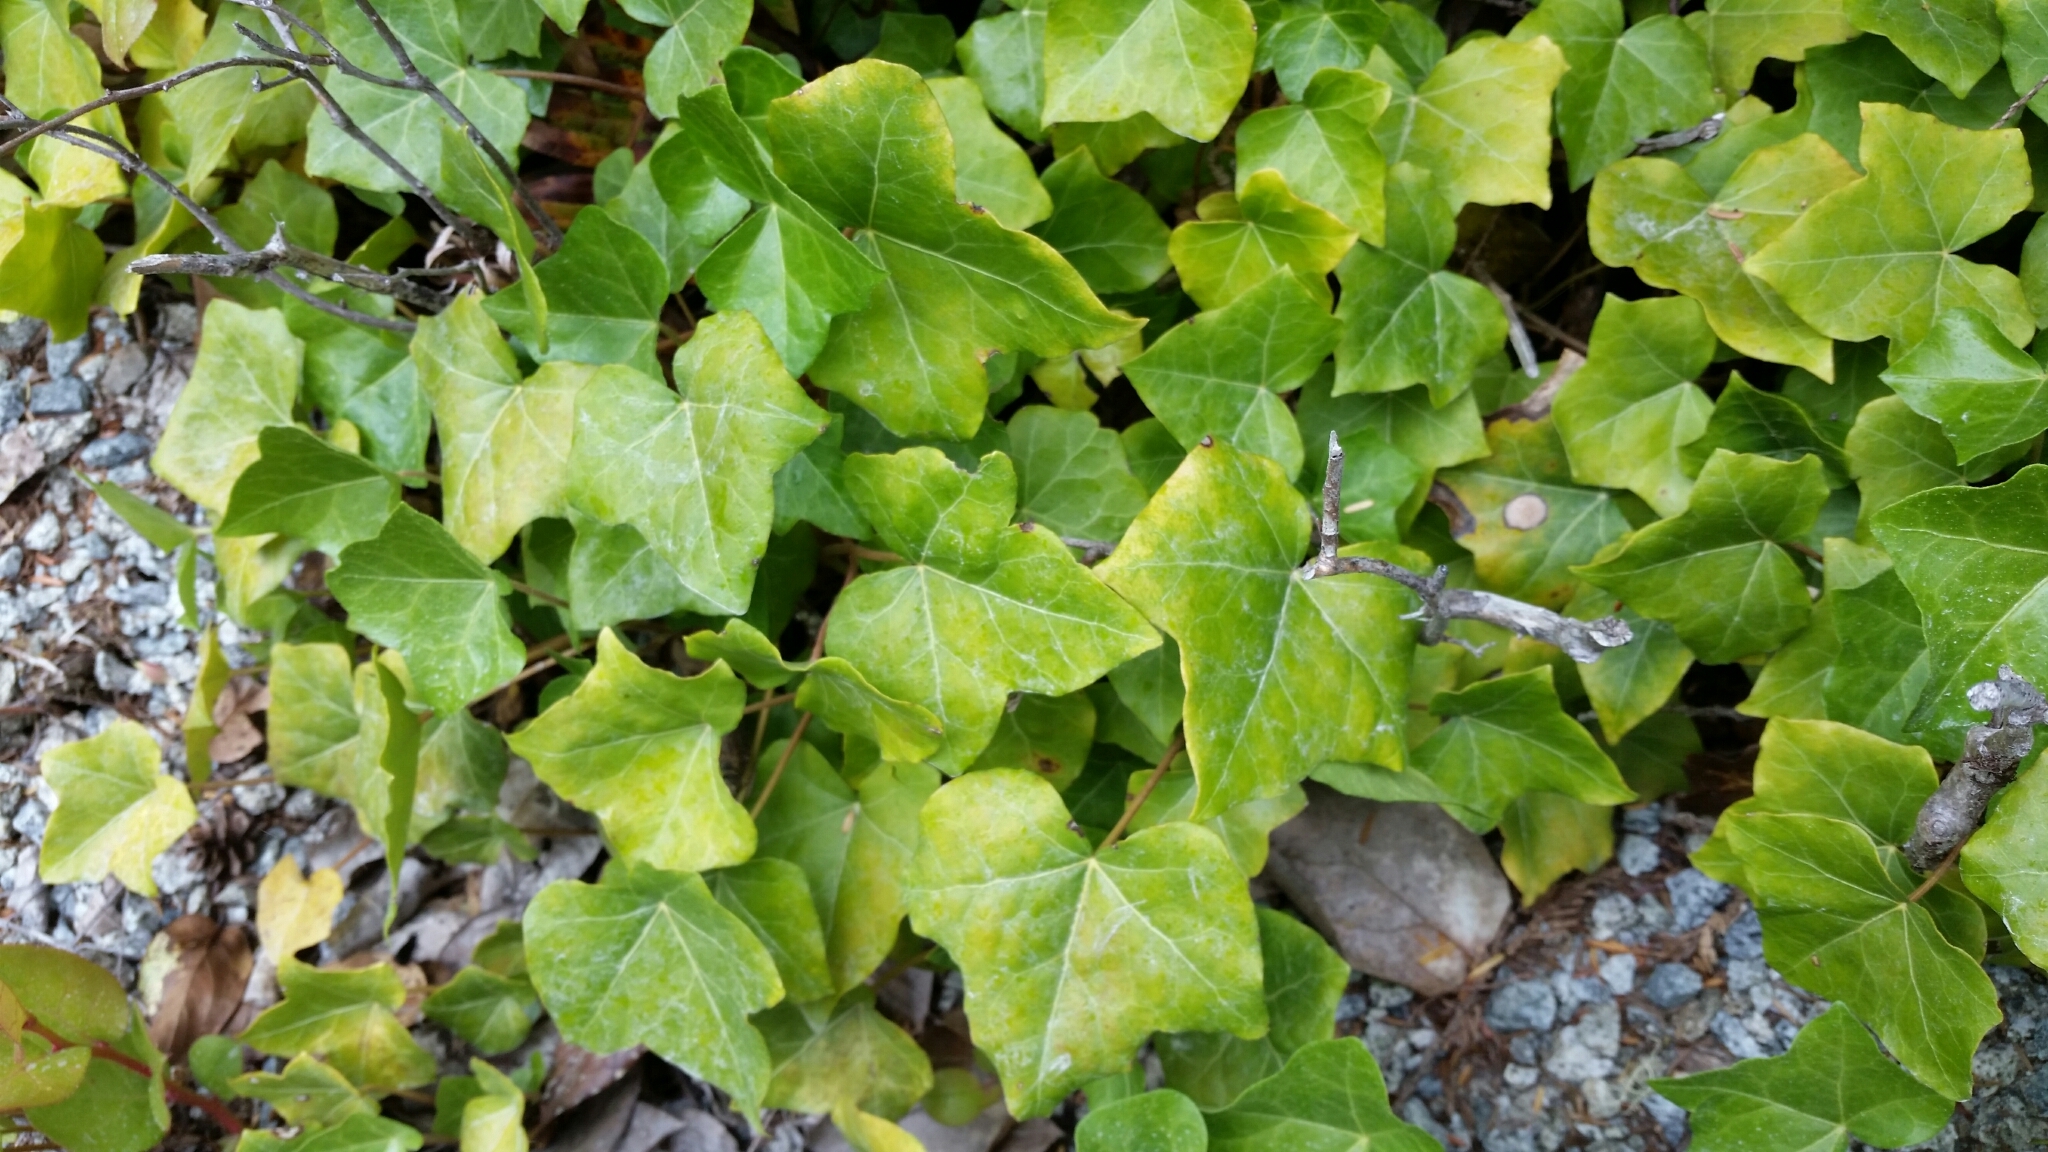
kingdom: Plantae
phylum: Tracheophyta
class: Magnoliopsida
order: Apiales
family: Araliaceae
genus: Hedera
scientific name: Hedera helix
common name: Ivy
